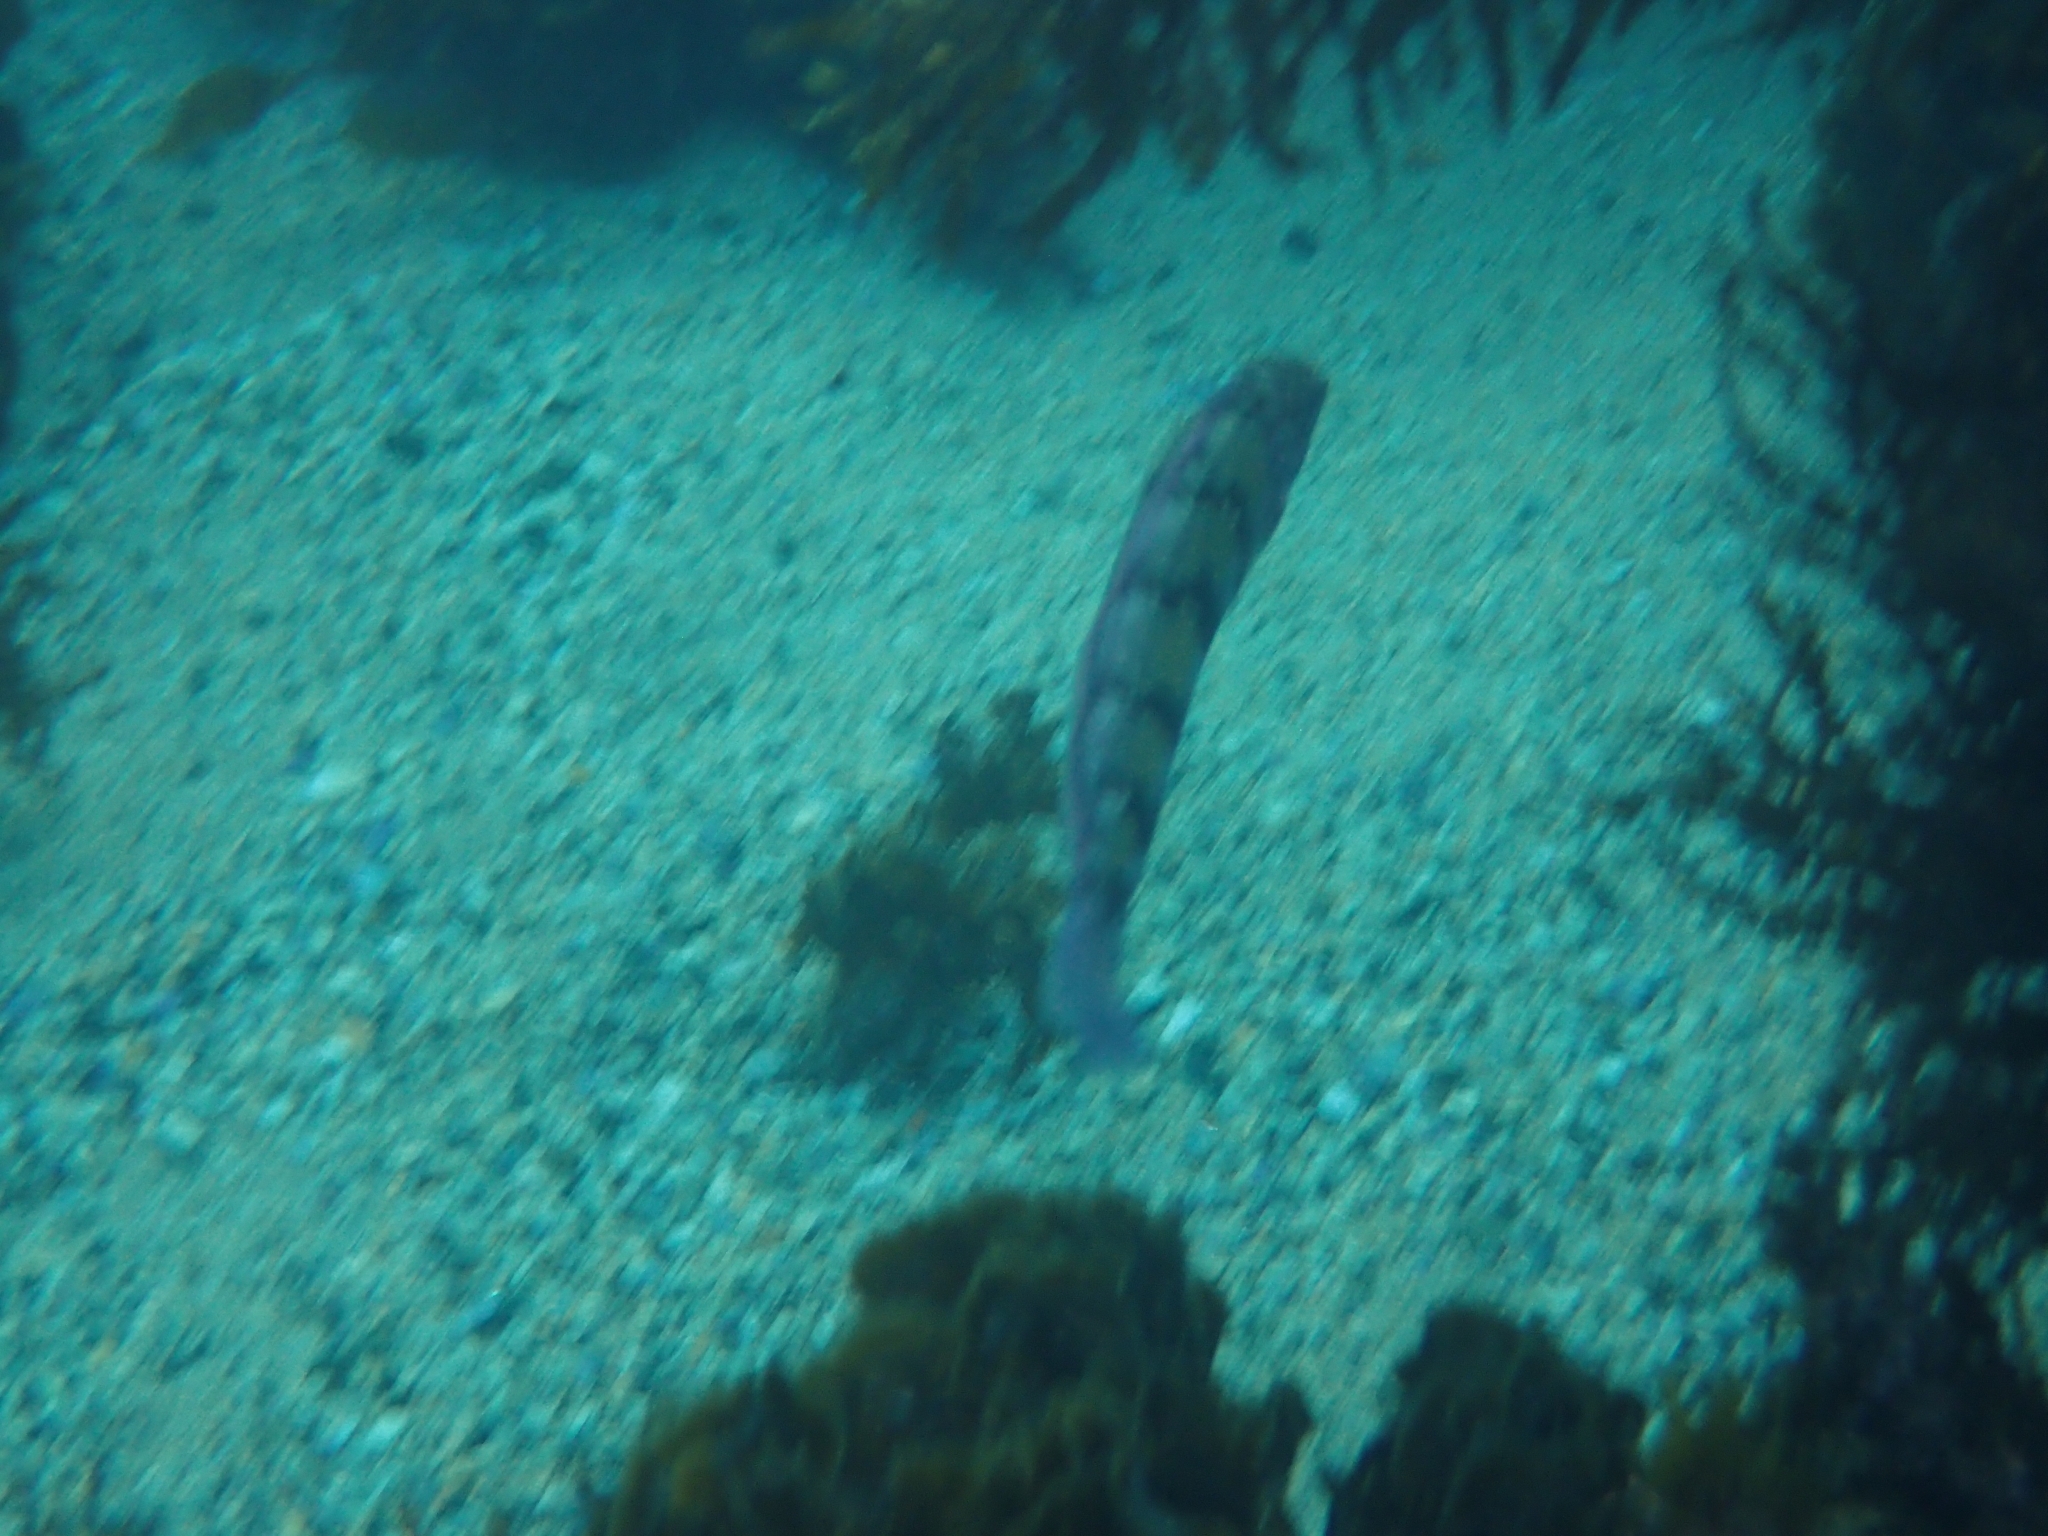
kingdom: Animalia
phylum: Chordata
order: Perciformes
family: Labridae
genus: Eupetrichthys
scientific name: Eupetrichthys angustipes
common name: Snake-skin wrasse
